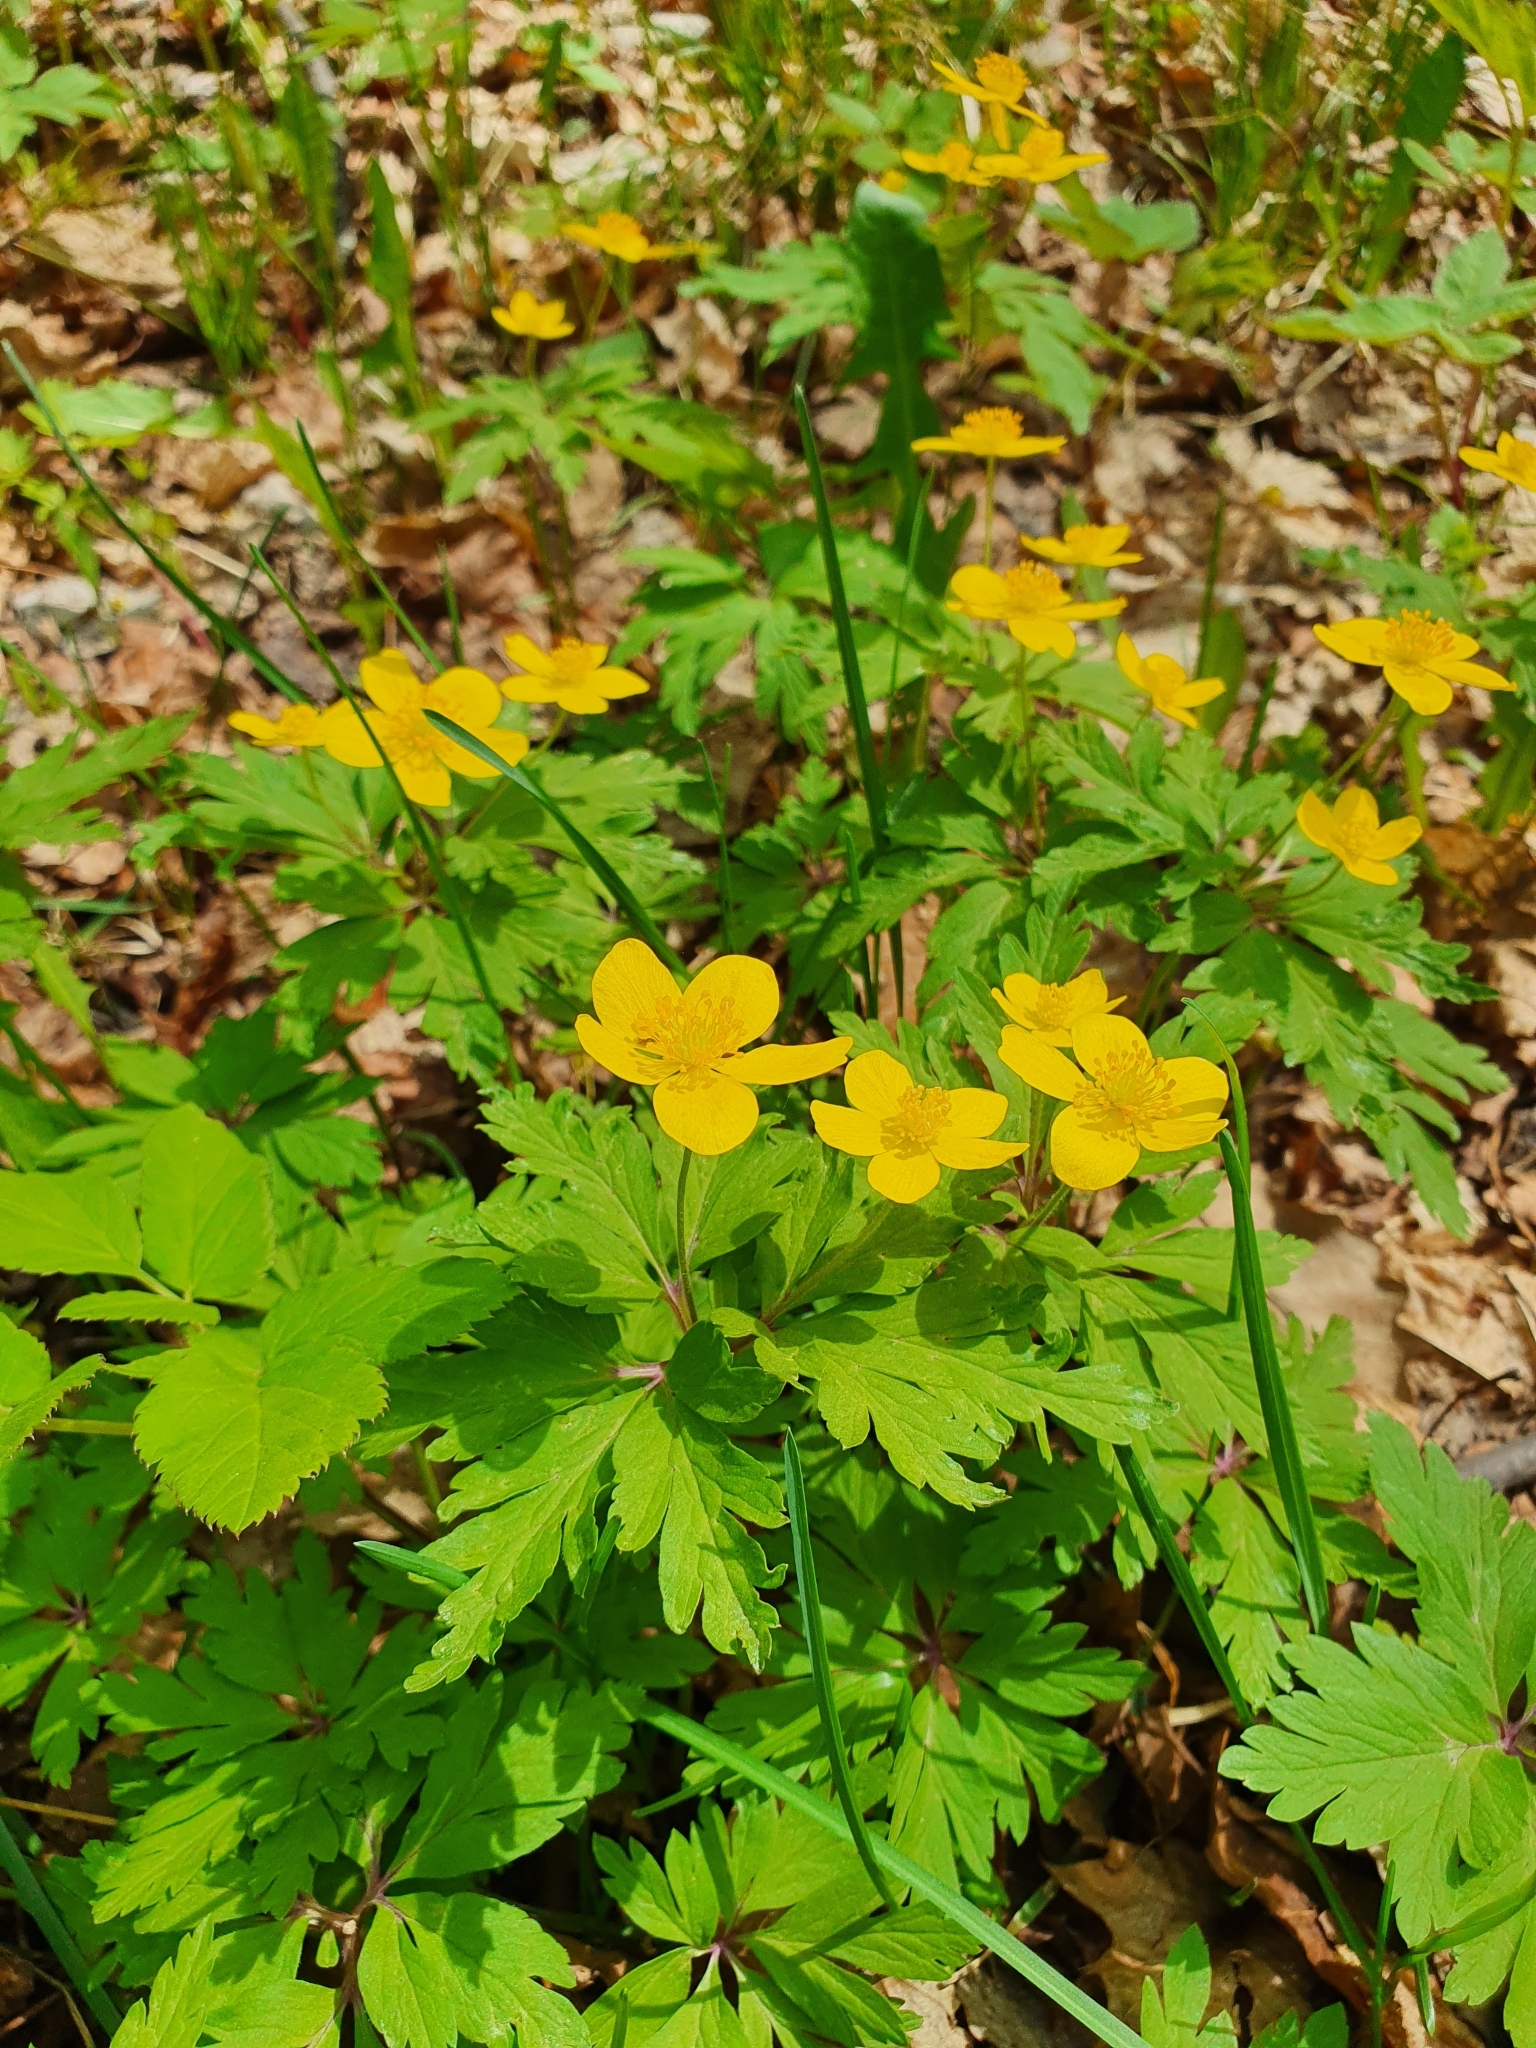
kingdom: Plantae
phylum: Tracheophyta
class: Magnoliopsida
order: Ranunculales
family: Ranunculaceae
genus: Anemone
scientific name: Anemone ranunculoides
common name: Yellow anemone
